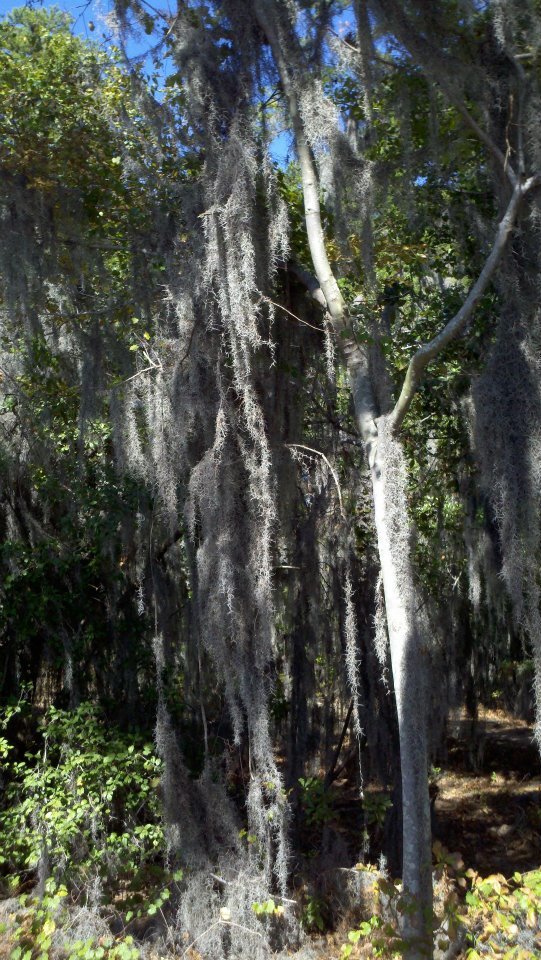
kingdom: Plantae
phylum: Tracheophyta
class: Liliopsida
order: Poales
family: Bromeliaceae
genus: Tillandsia
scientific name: Tillandsia usneoides
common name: Spanish moss
